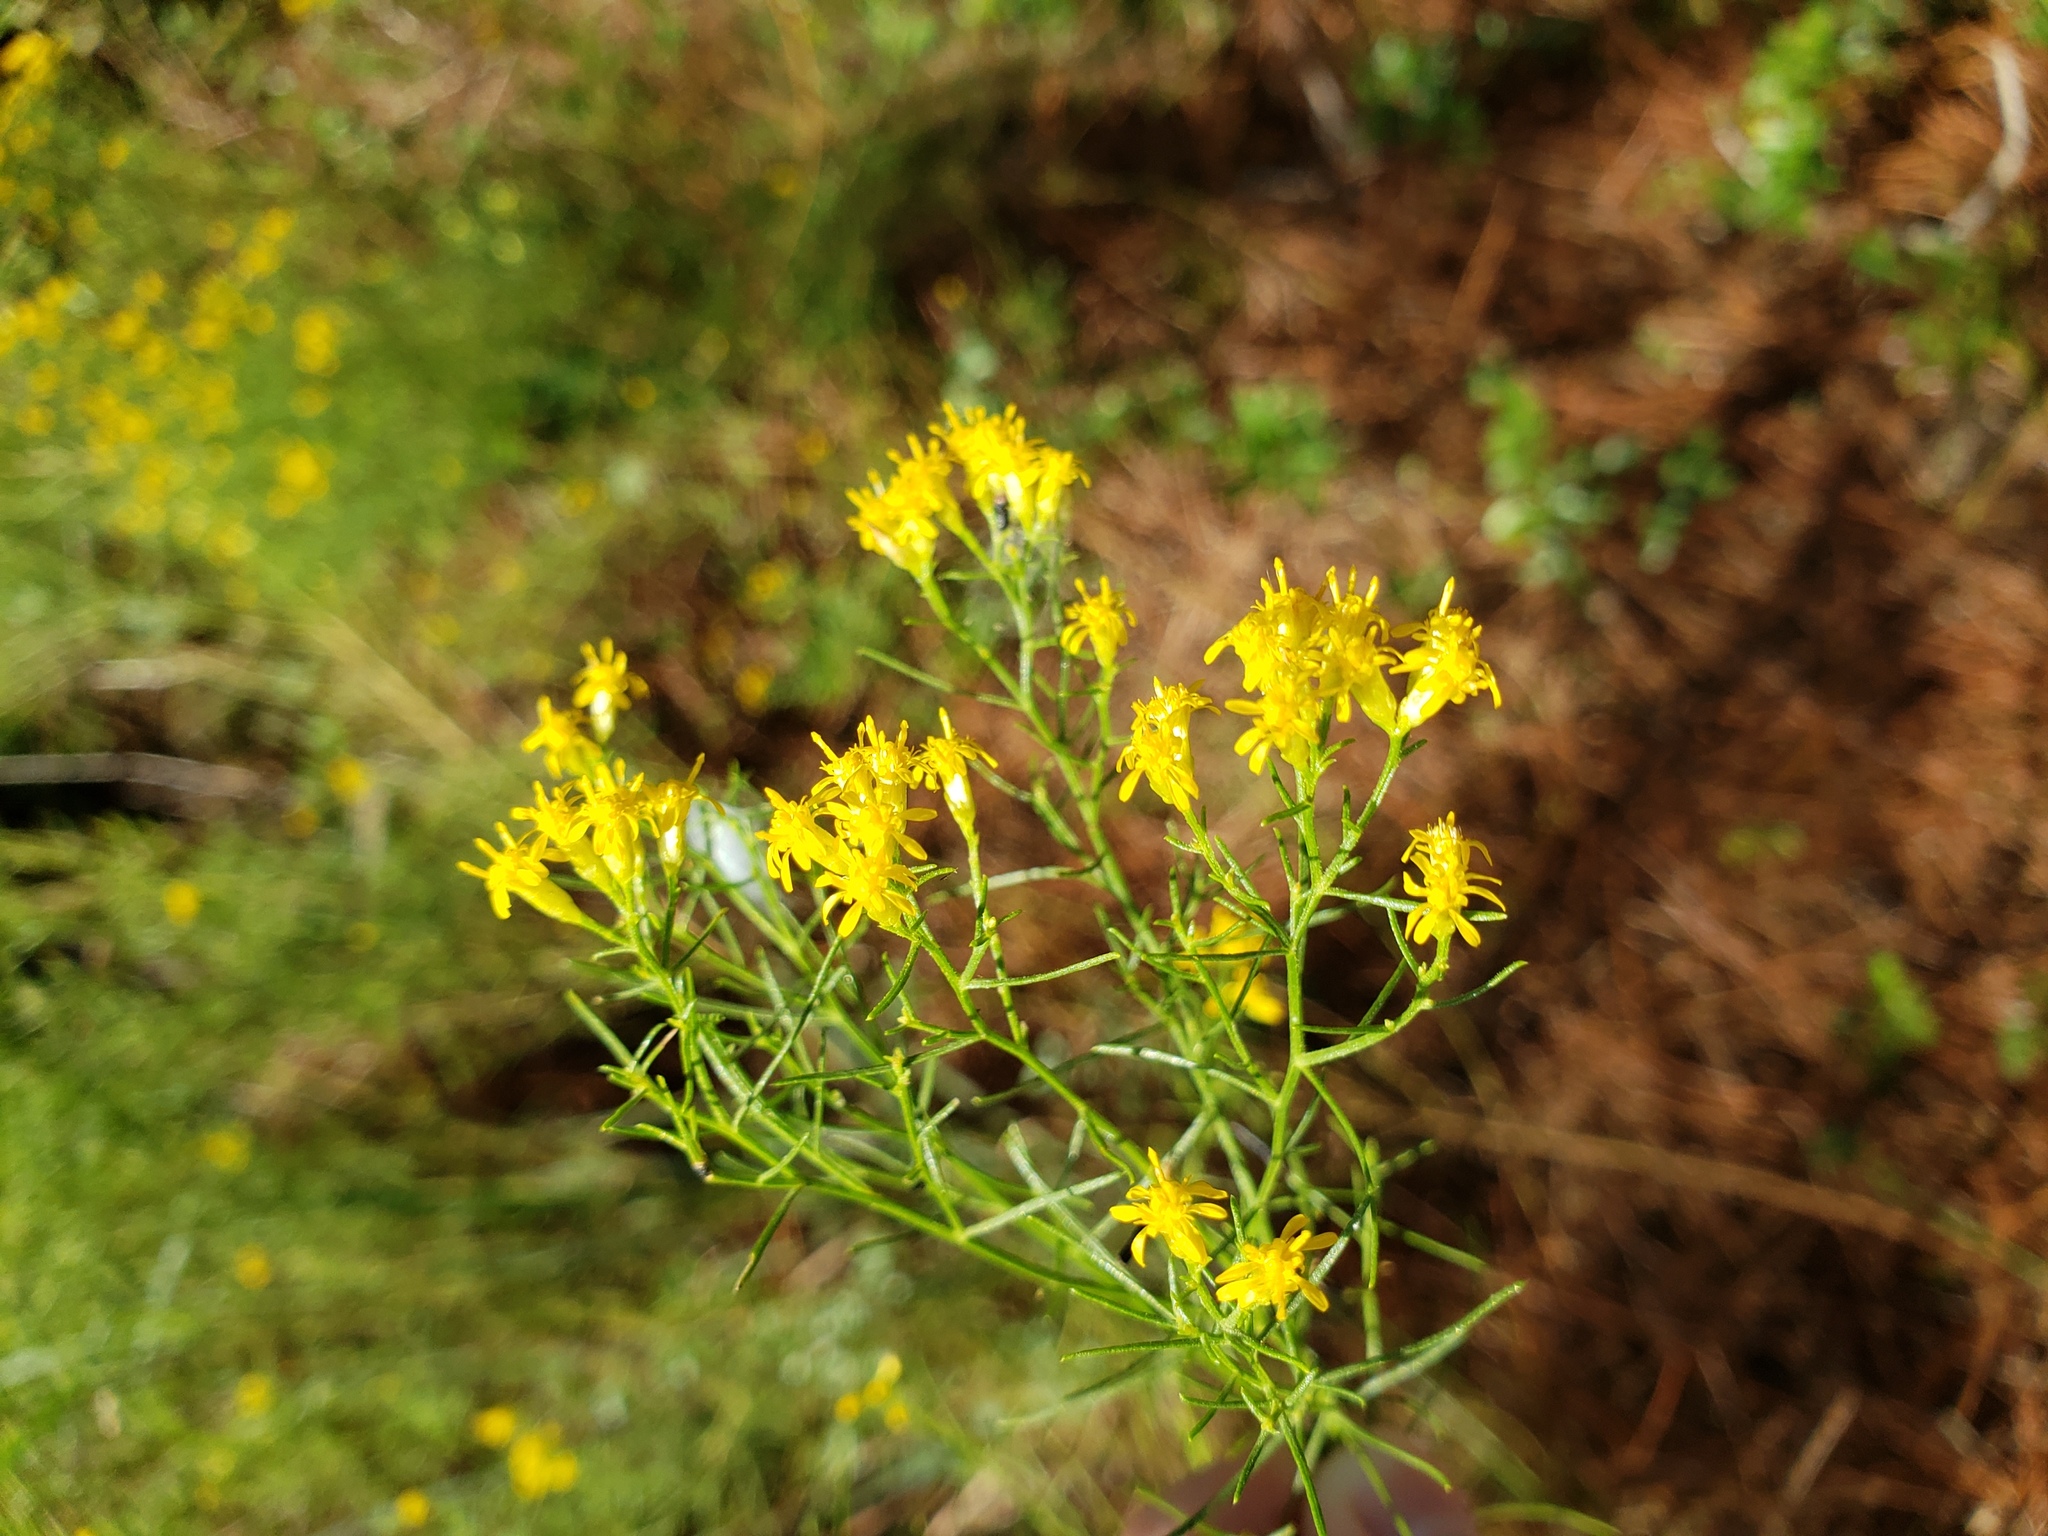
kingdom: Plantae
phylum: Tracheophyta
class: Magnoliopsida
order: Asterales
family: Asteraceae
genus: Euthamia
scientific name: Euthamia caroliniana
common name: Coastal plain goldentop
